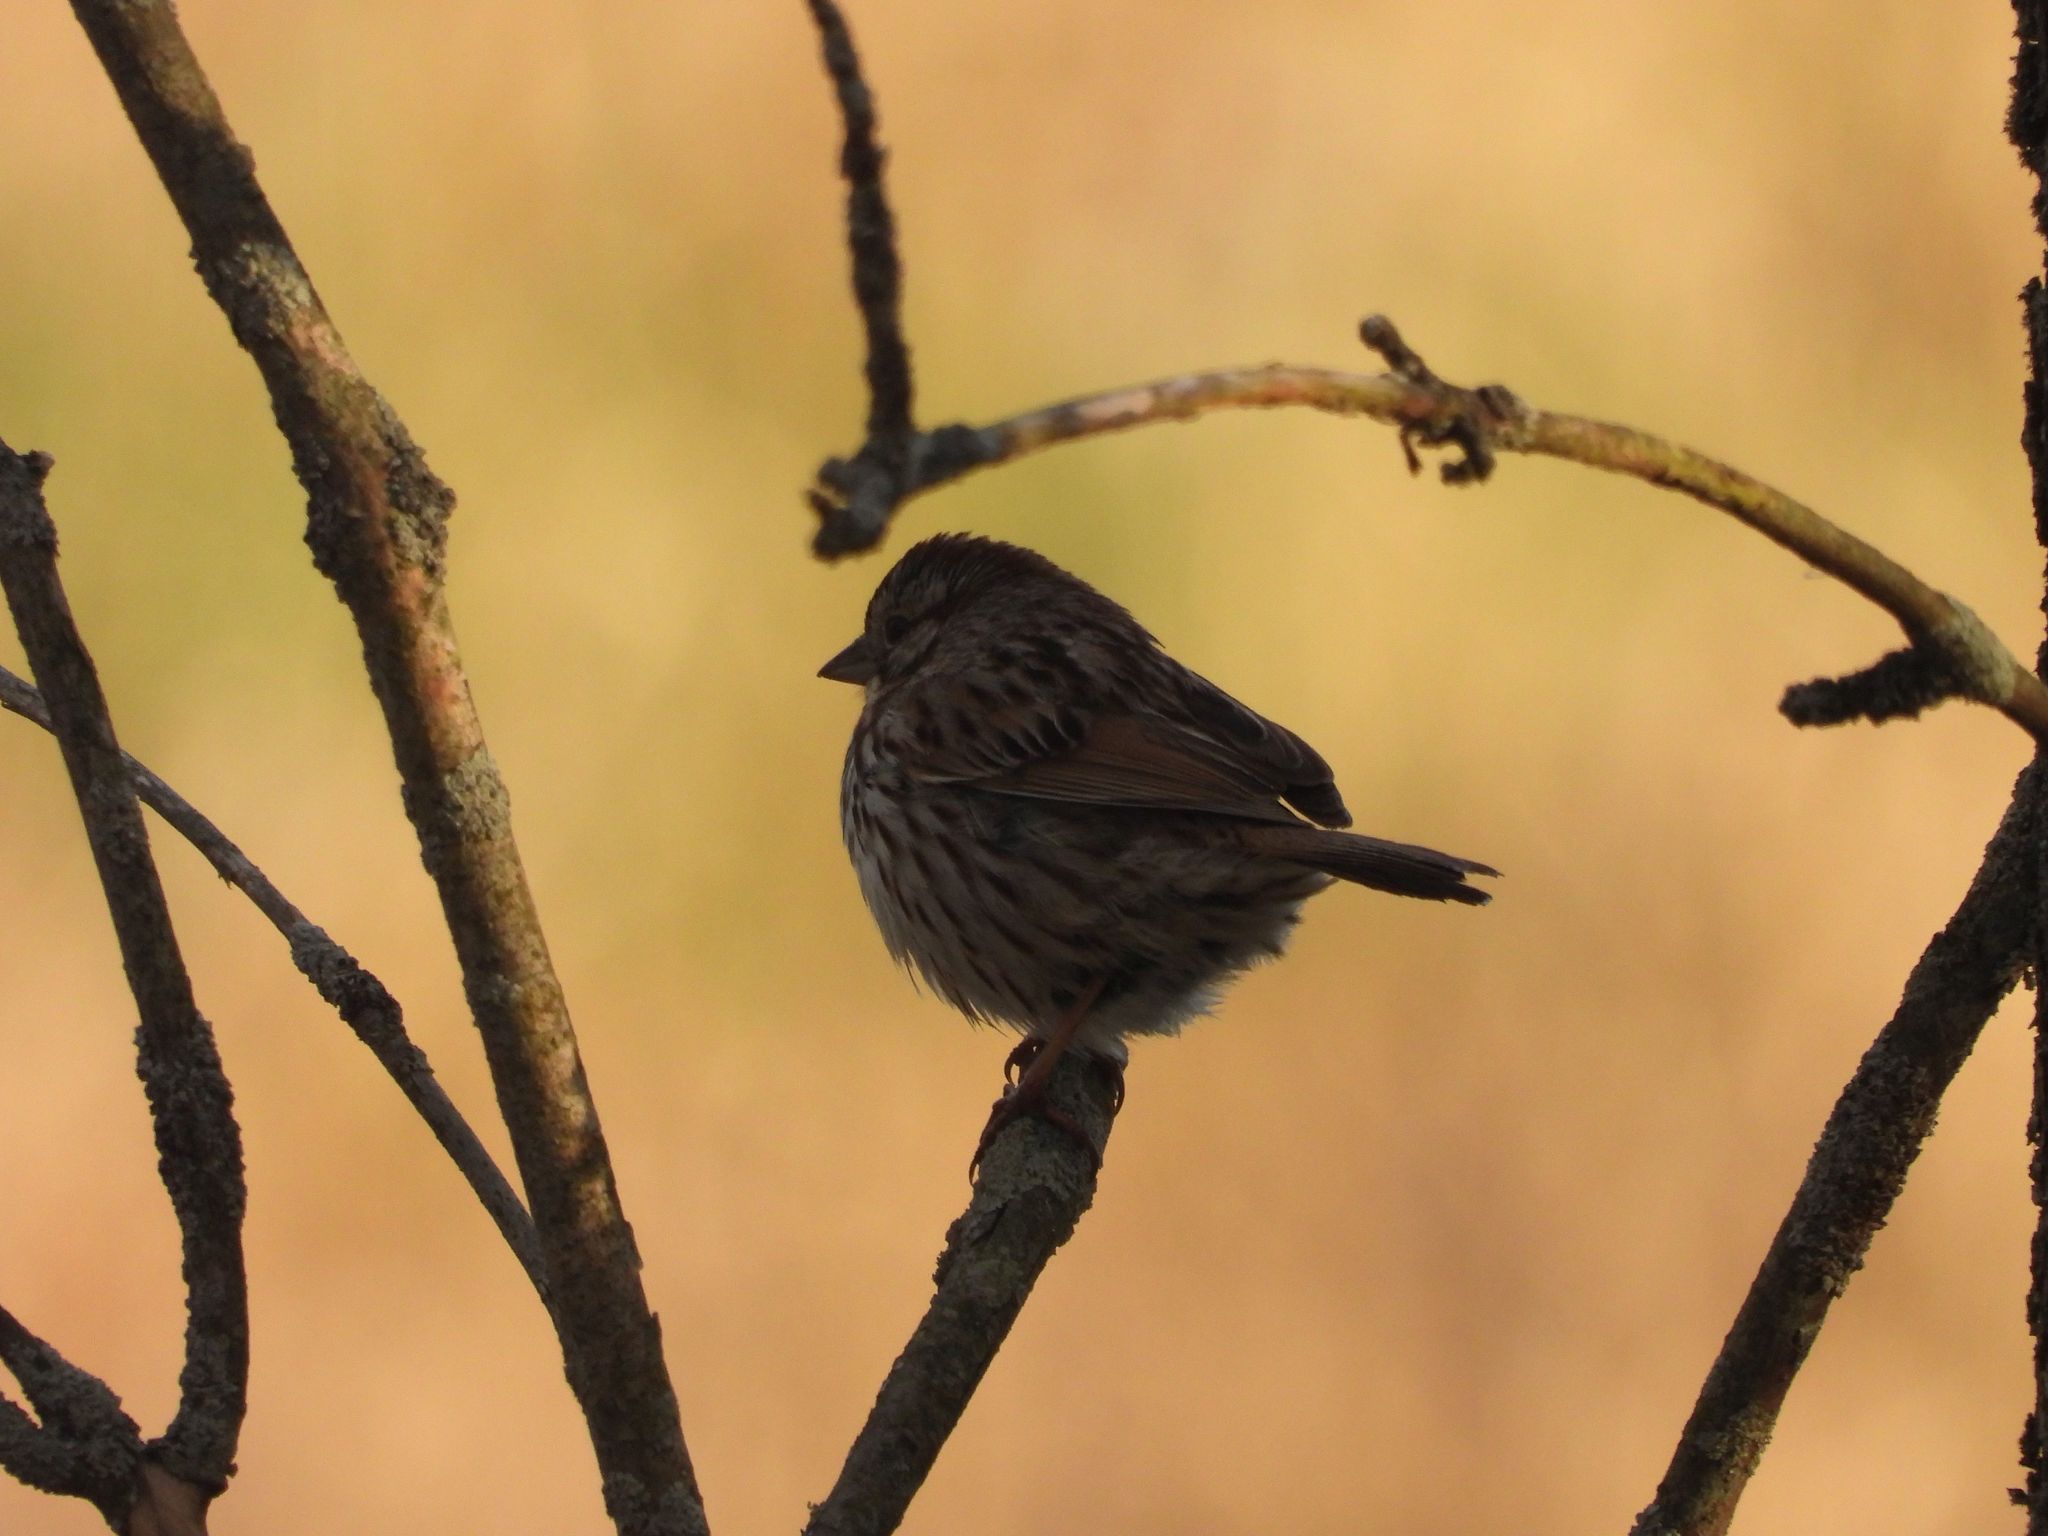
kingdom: Animalia
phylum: Chordata
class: Aves
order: Passeriformes
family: Passerellidae
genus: Melospiza
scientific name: Melospiza melodia
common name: Song sparrow
